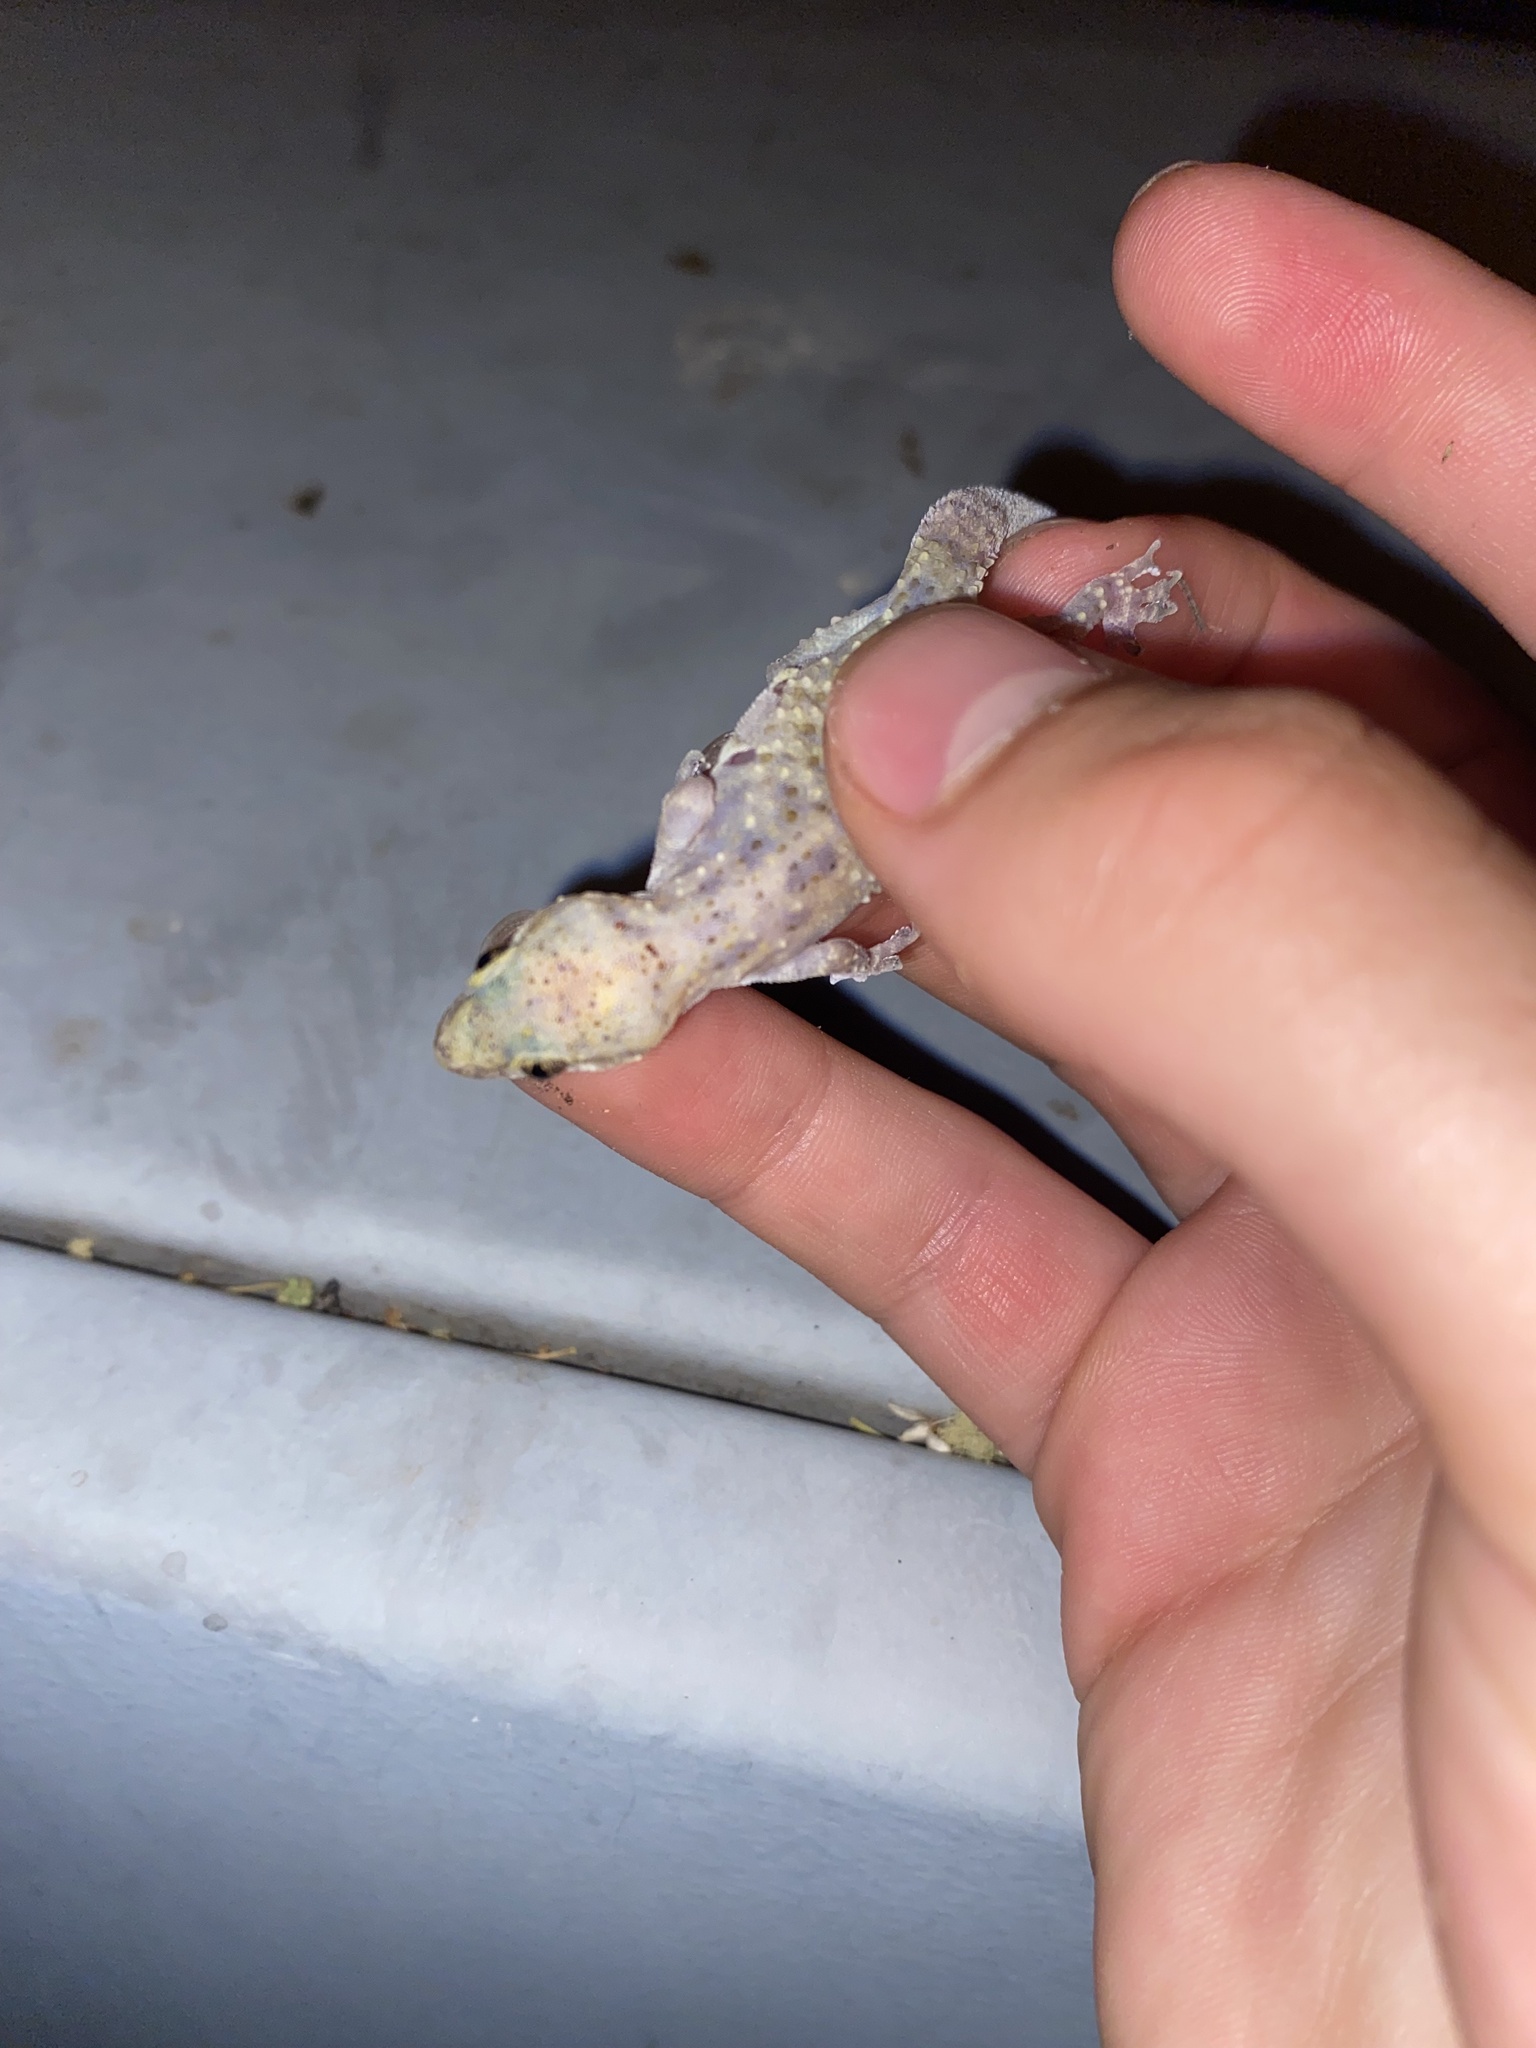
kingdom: Animalia
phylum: Chordata
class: Squamata
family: Gekkonidae
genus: Hemidactylus
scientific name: Hemidactylus turcicus
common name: Turkish gecko
